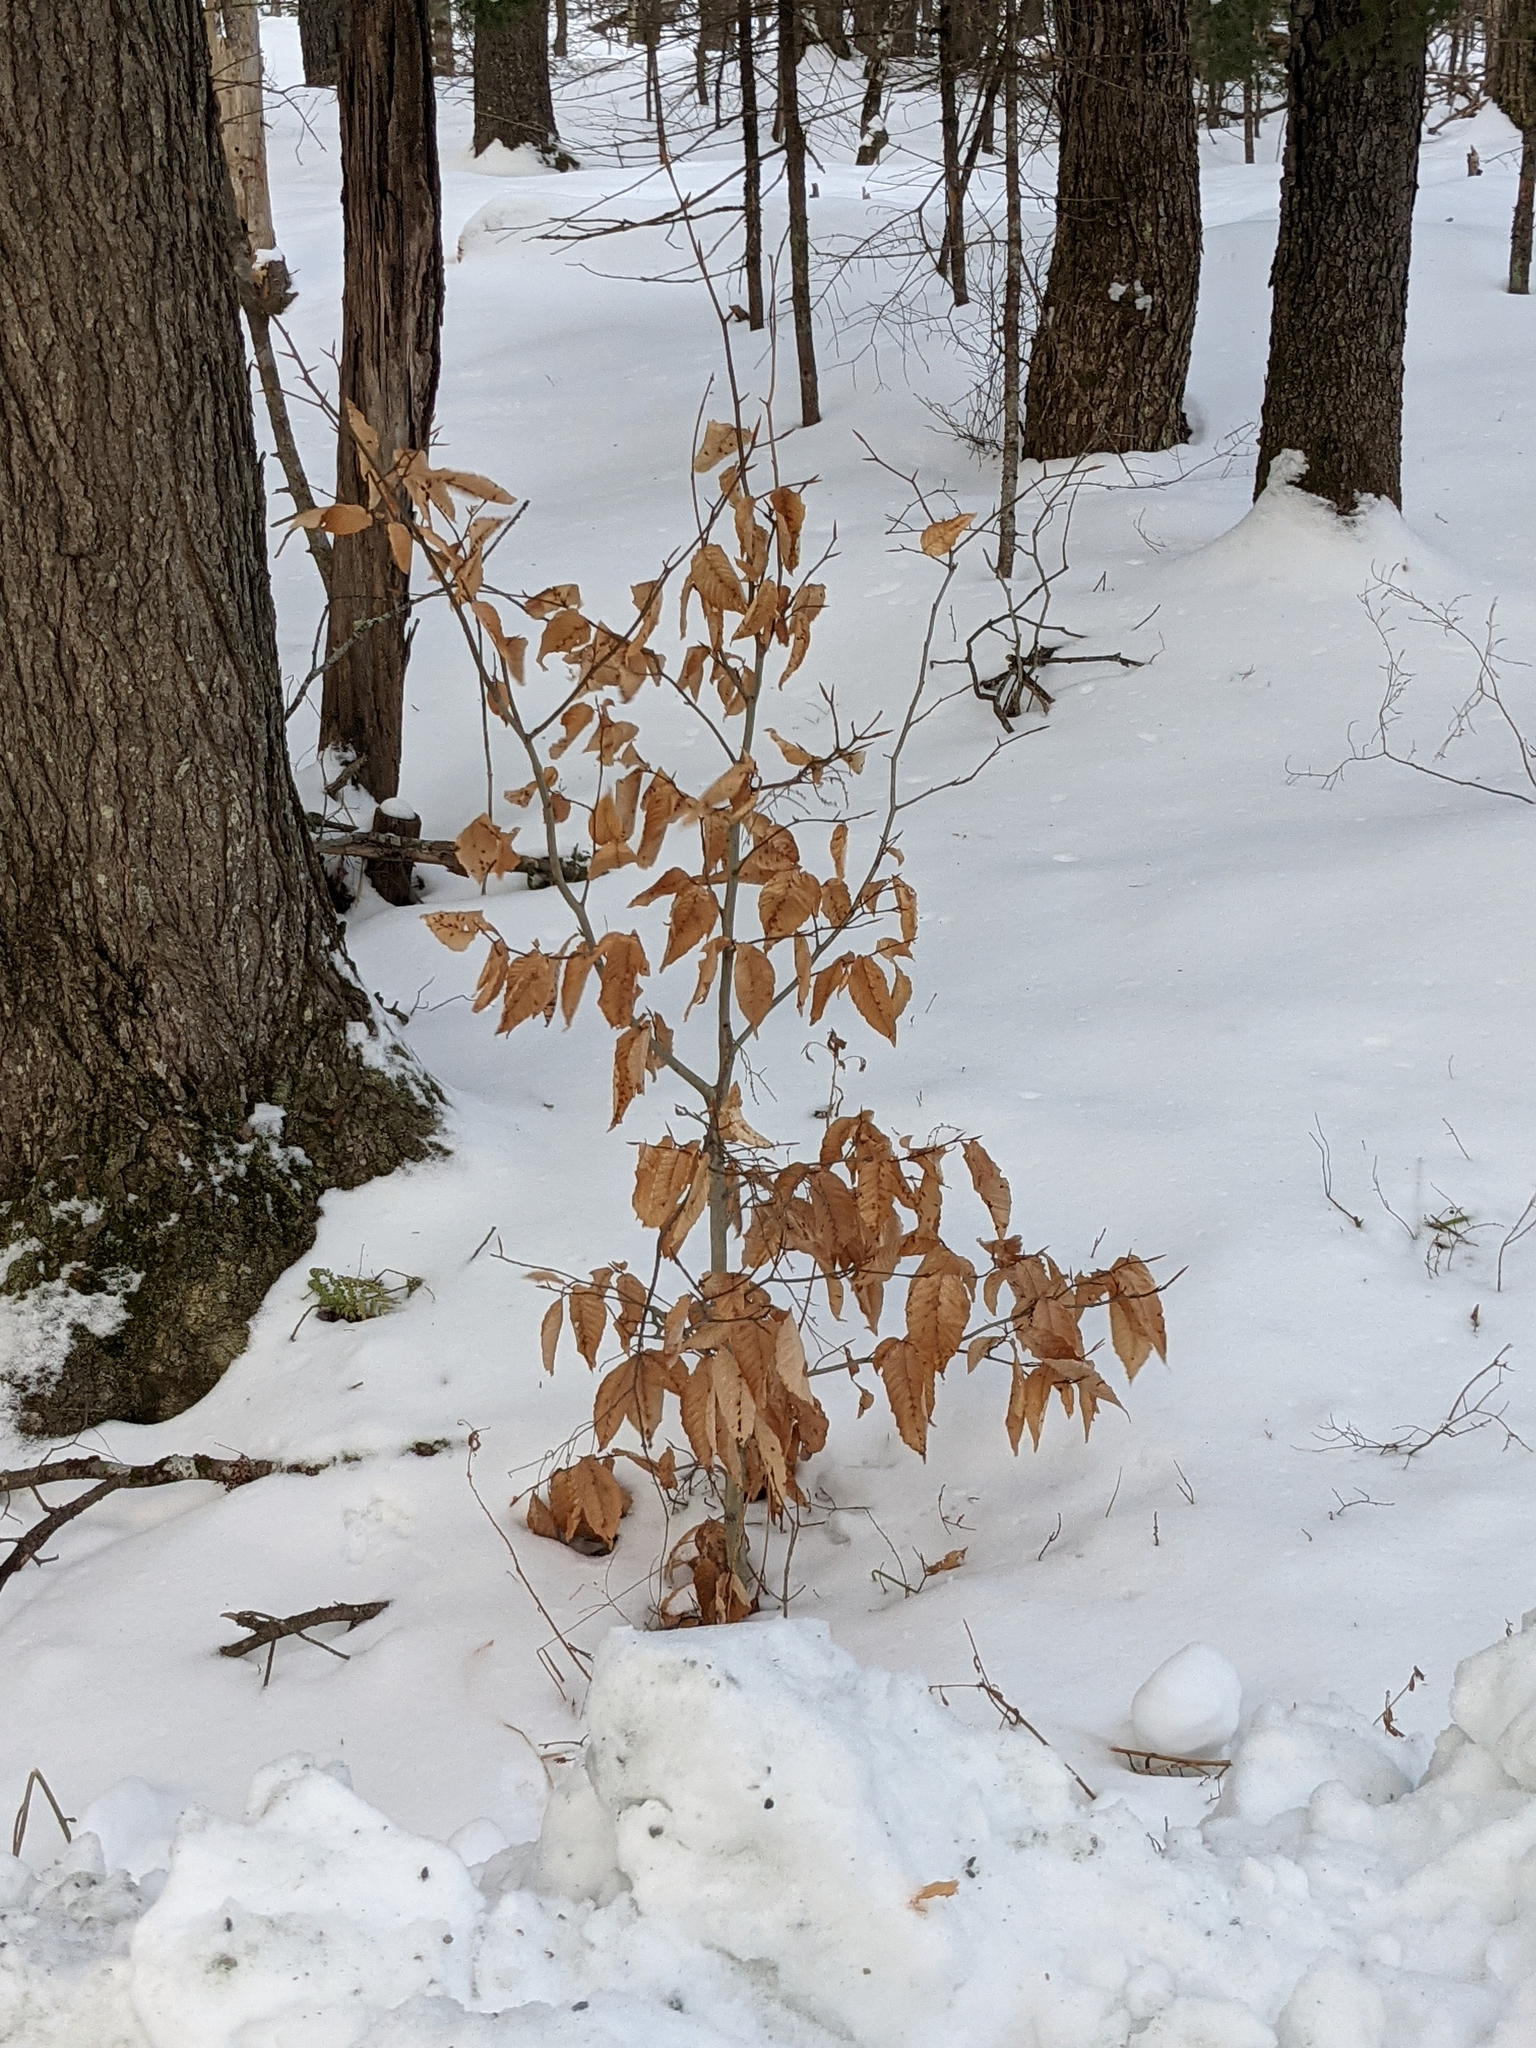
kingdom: Plantae
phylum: Tracheophyta
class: Magnoliopsida
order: Fagales
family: Fagaceae
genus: Fagus
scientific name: Fagus grandifolia
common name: American beech
